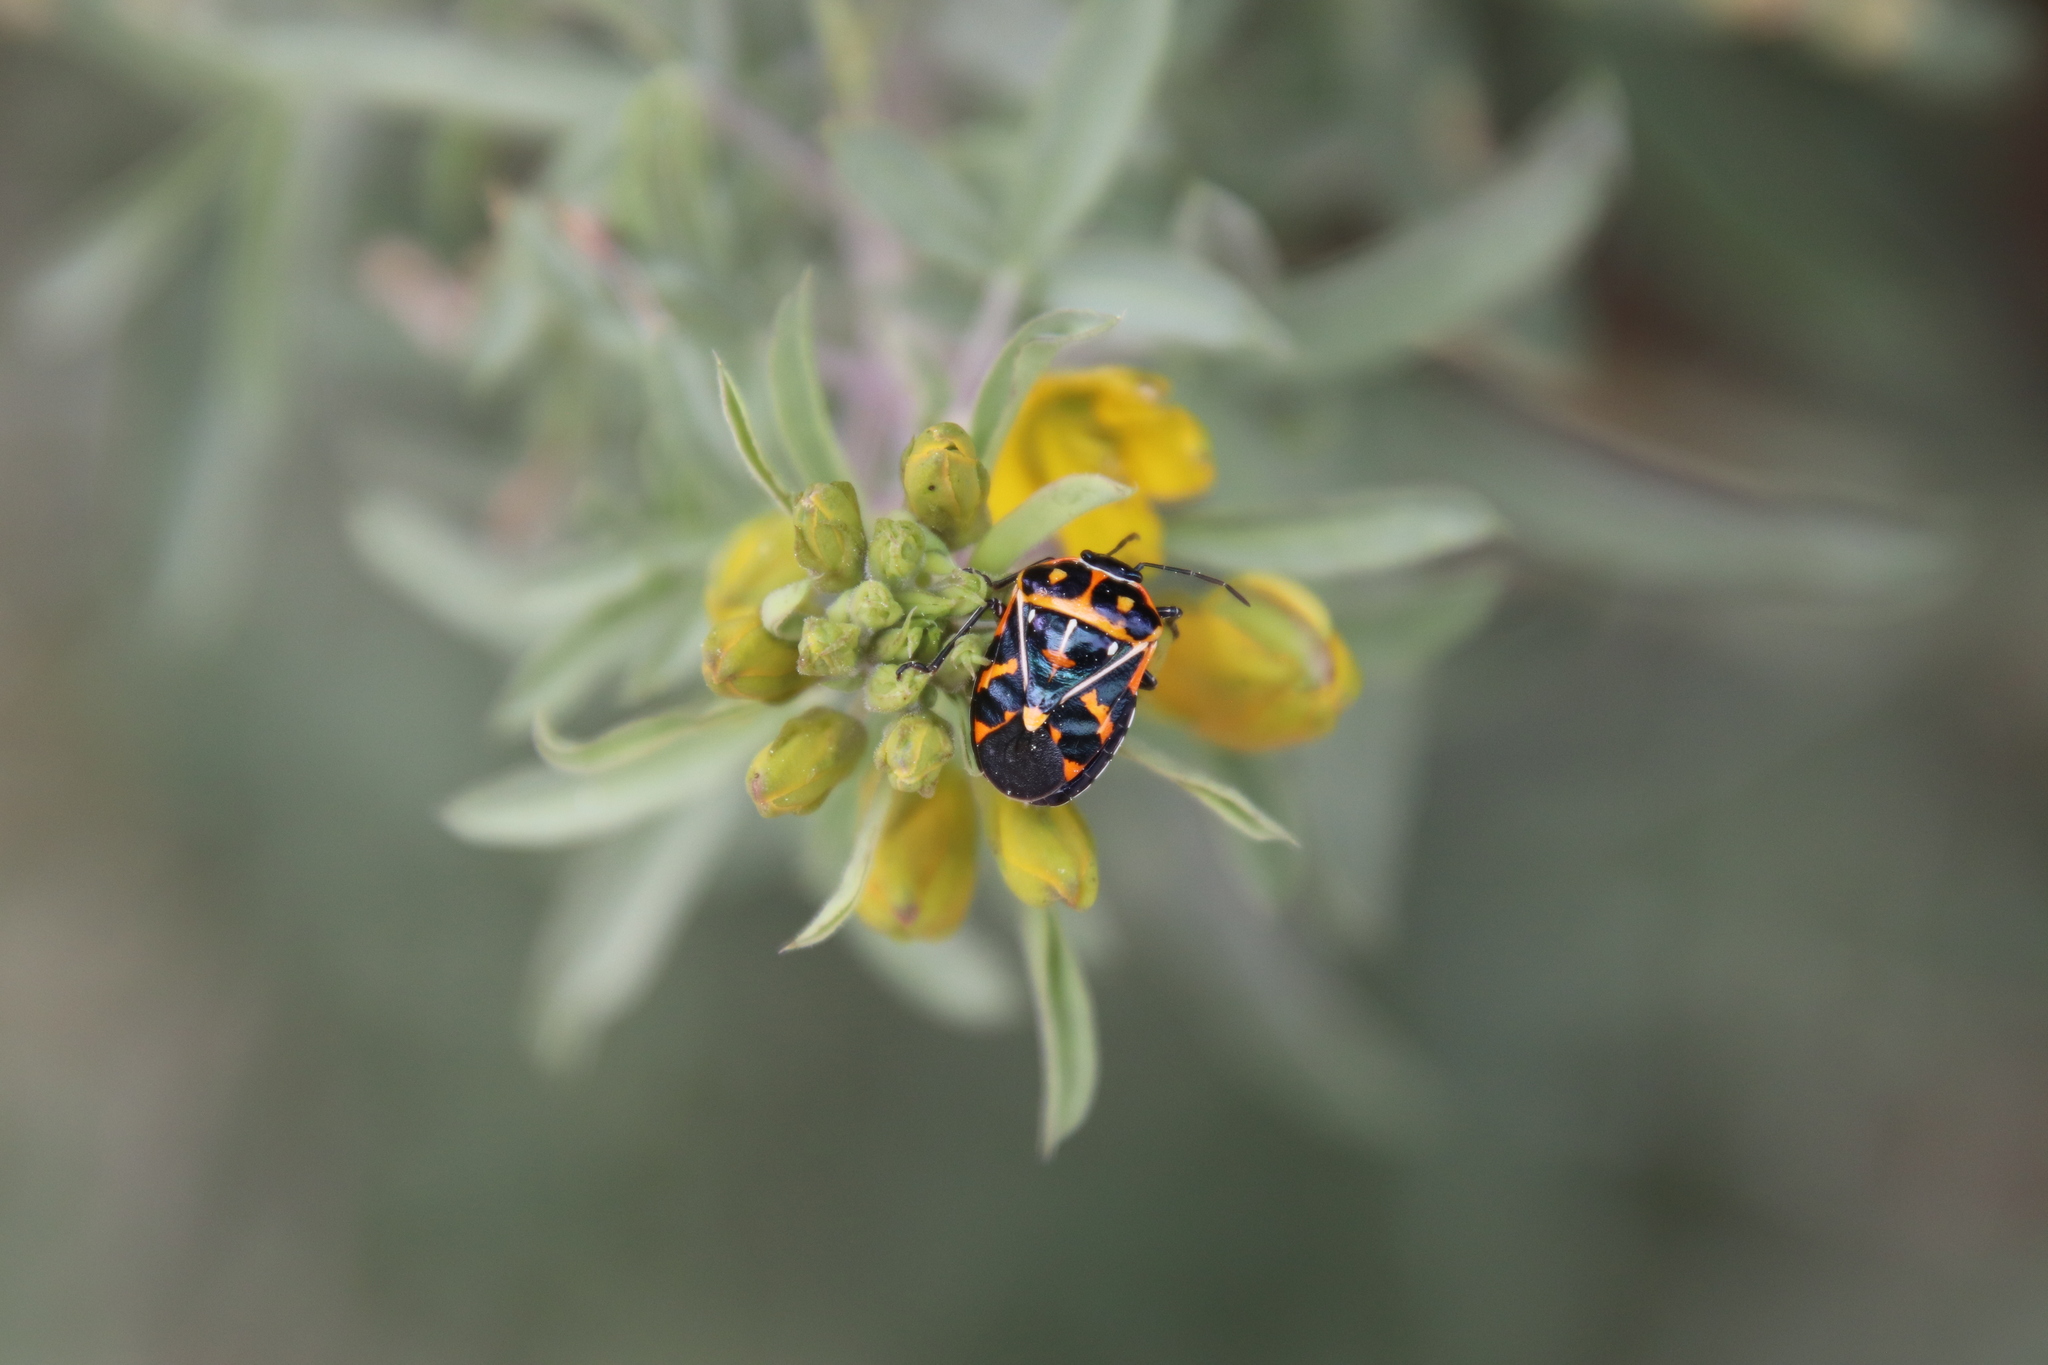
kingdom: Animalia
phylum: Arthropoda
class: Insecta
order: Hemiptera
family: Pentatomidae
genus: Murgantia
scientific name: Murgantia histrionica
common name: Harlequin bug
